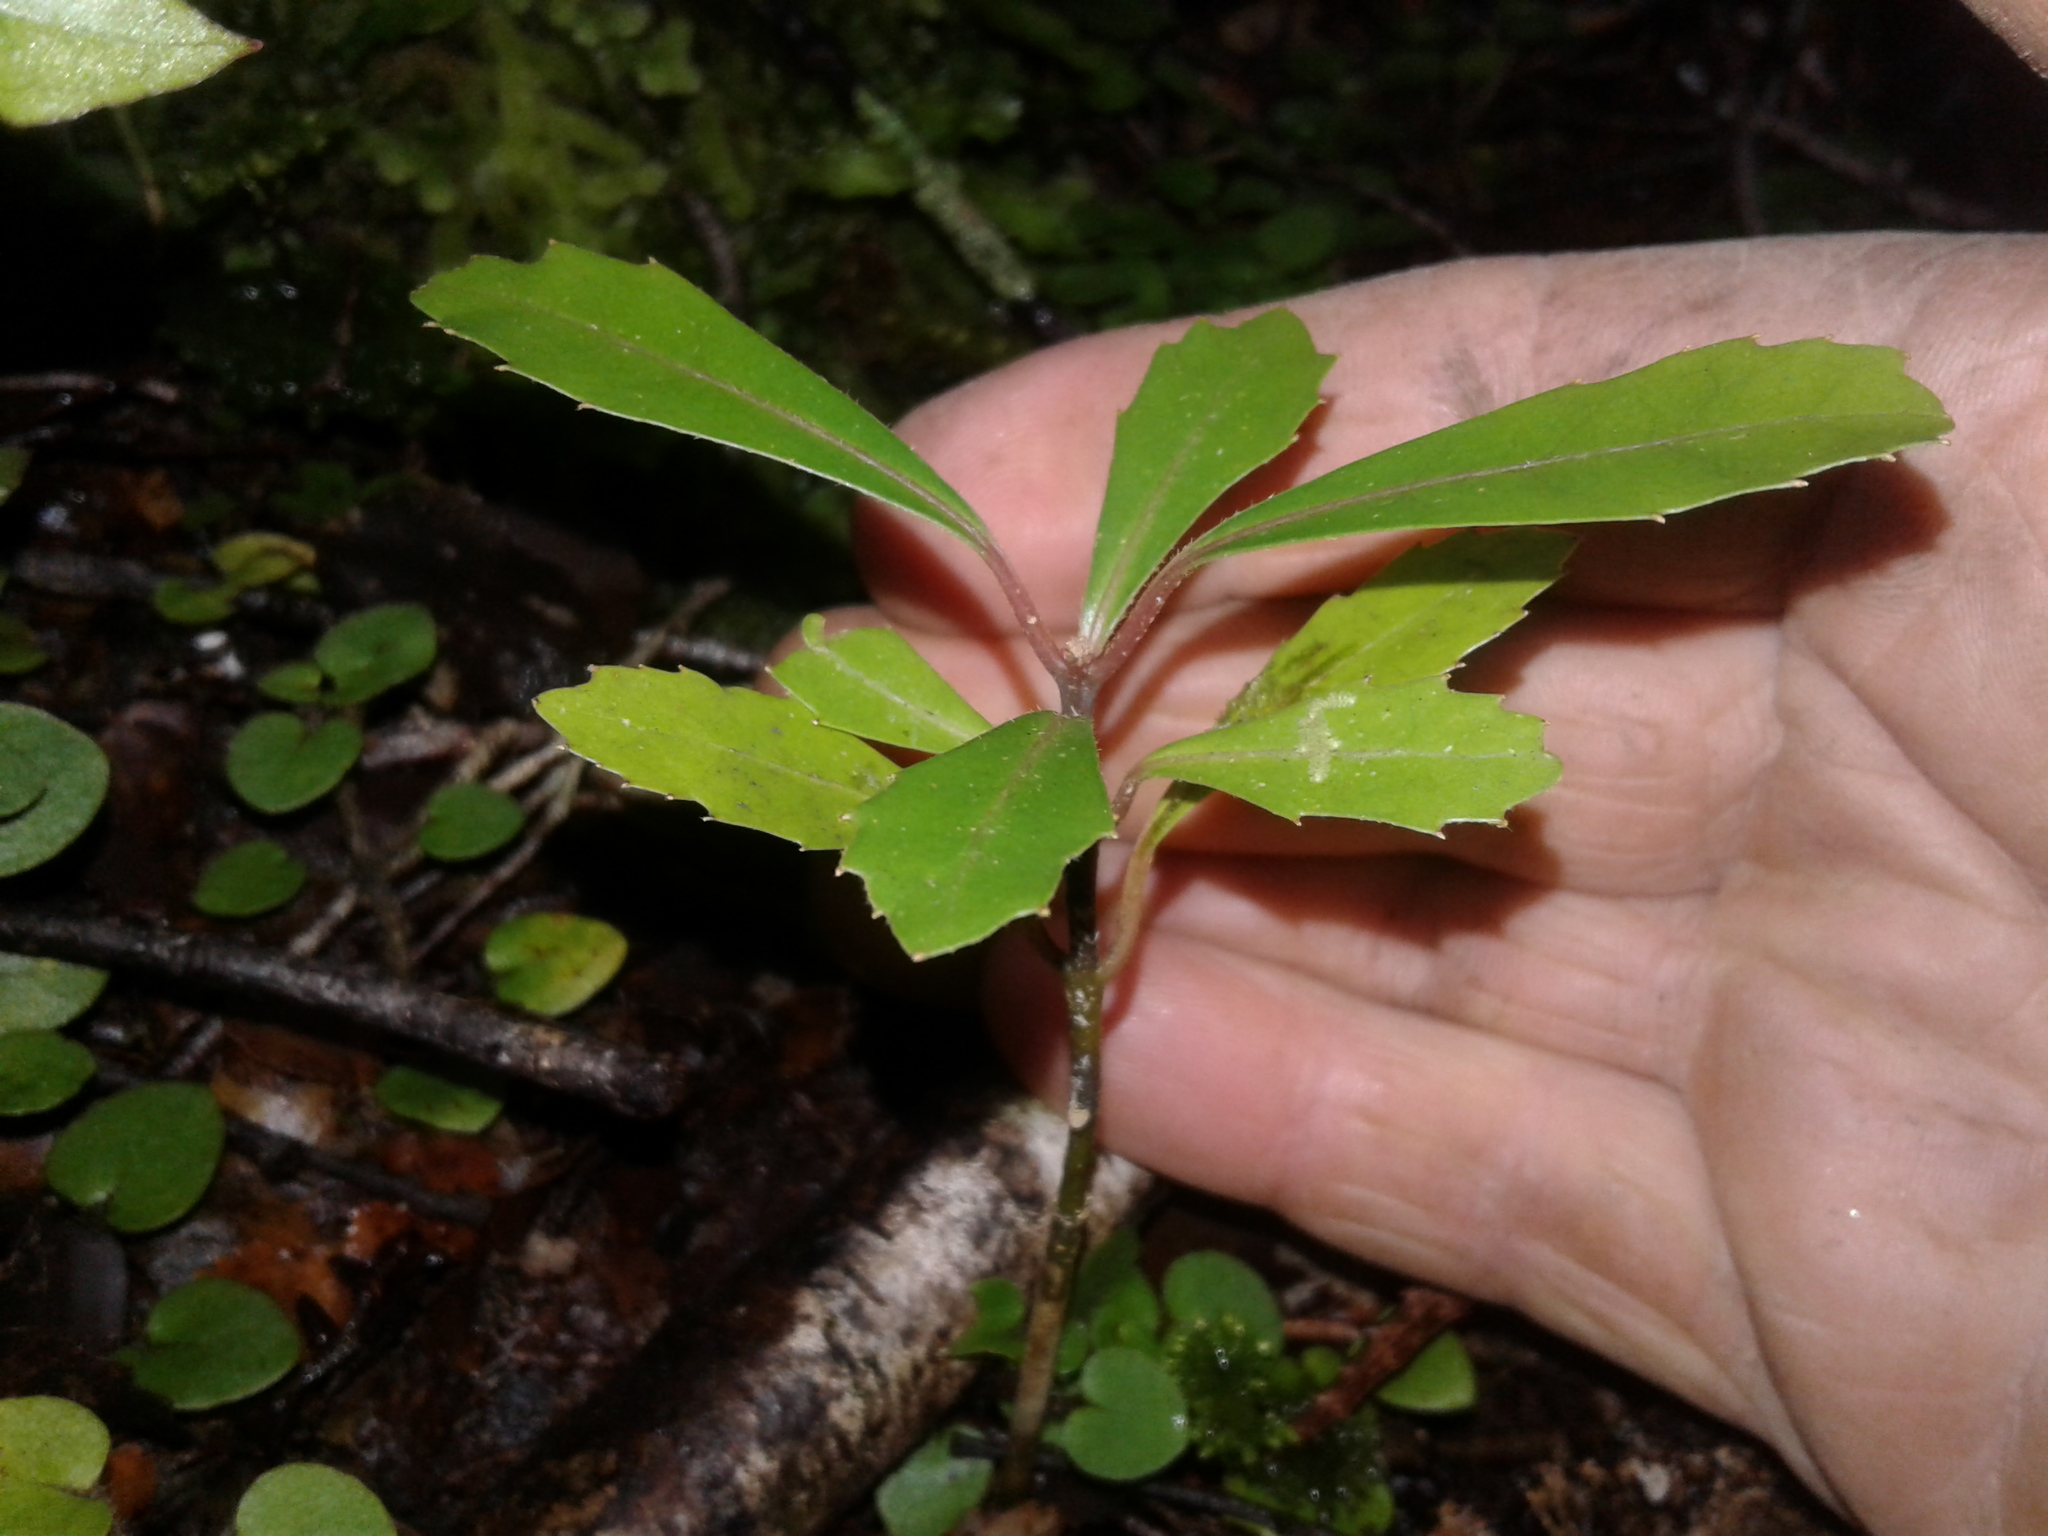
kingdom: Plantae
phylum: Tracheophyta
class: Magnoliopsida
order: Laurales
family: Monimiaceae
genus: Hedycarya
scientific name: Hedycarya arborea
